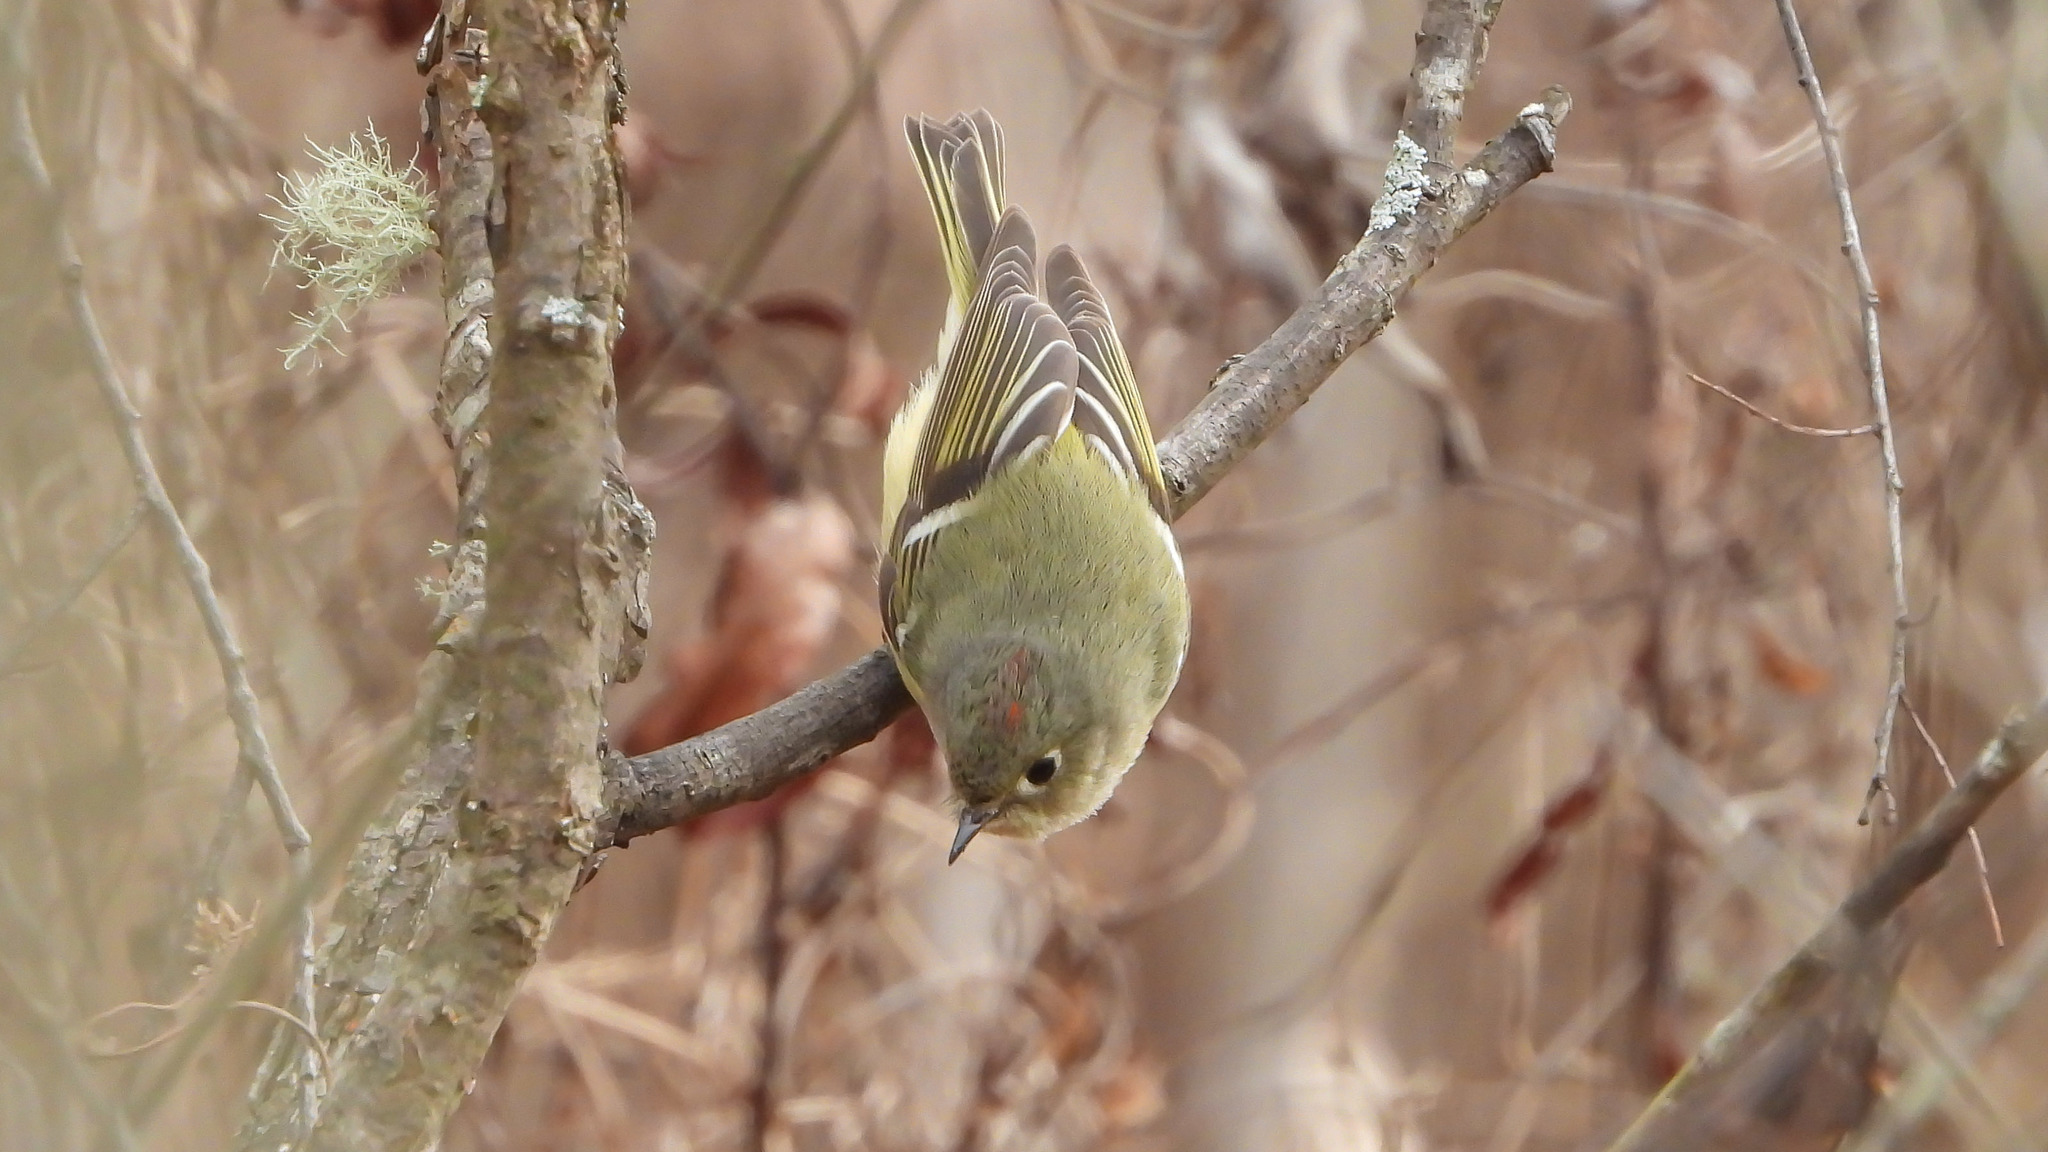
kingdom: Animalia
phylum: Chordata
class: Aves
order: Passeriformes
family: Regulidae
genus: Regulus
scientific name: Regulus calendula
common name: Ruby-crowned kinglet
